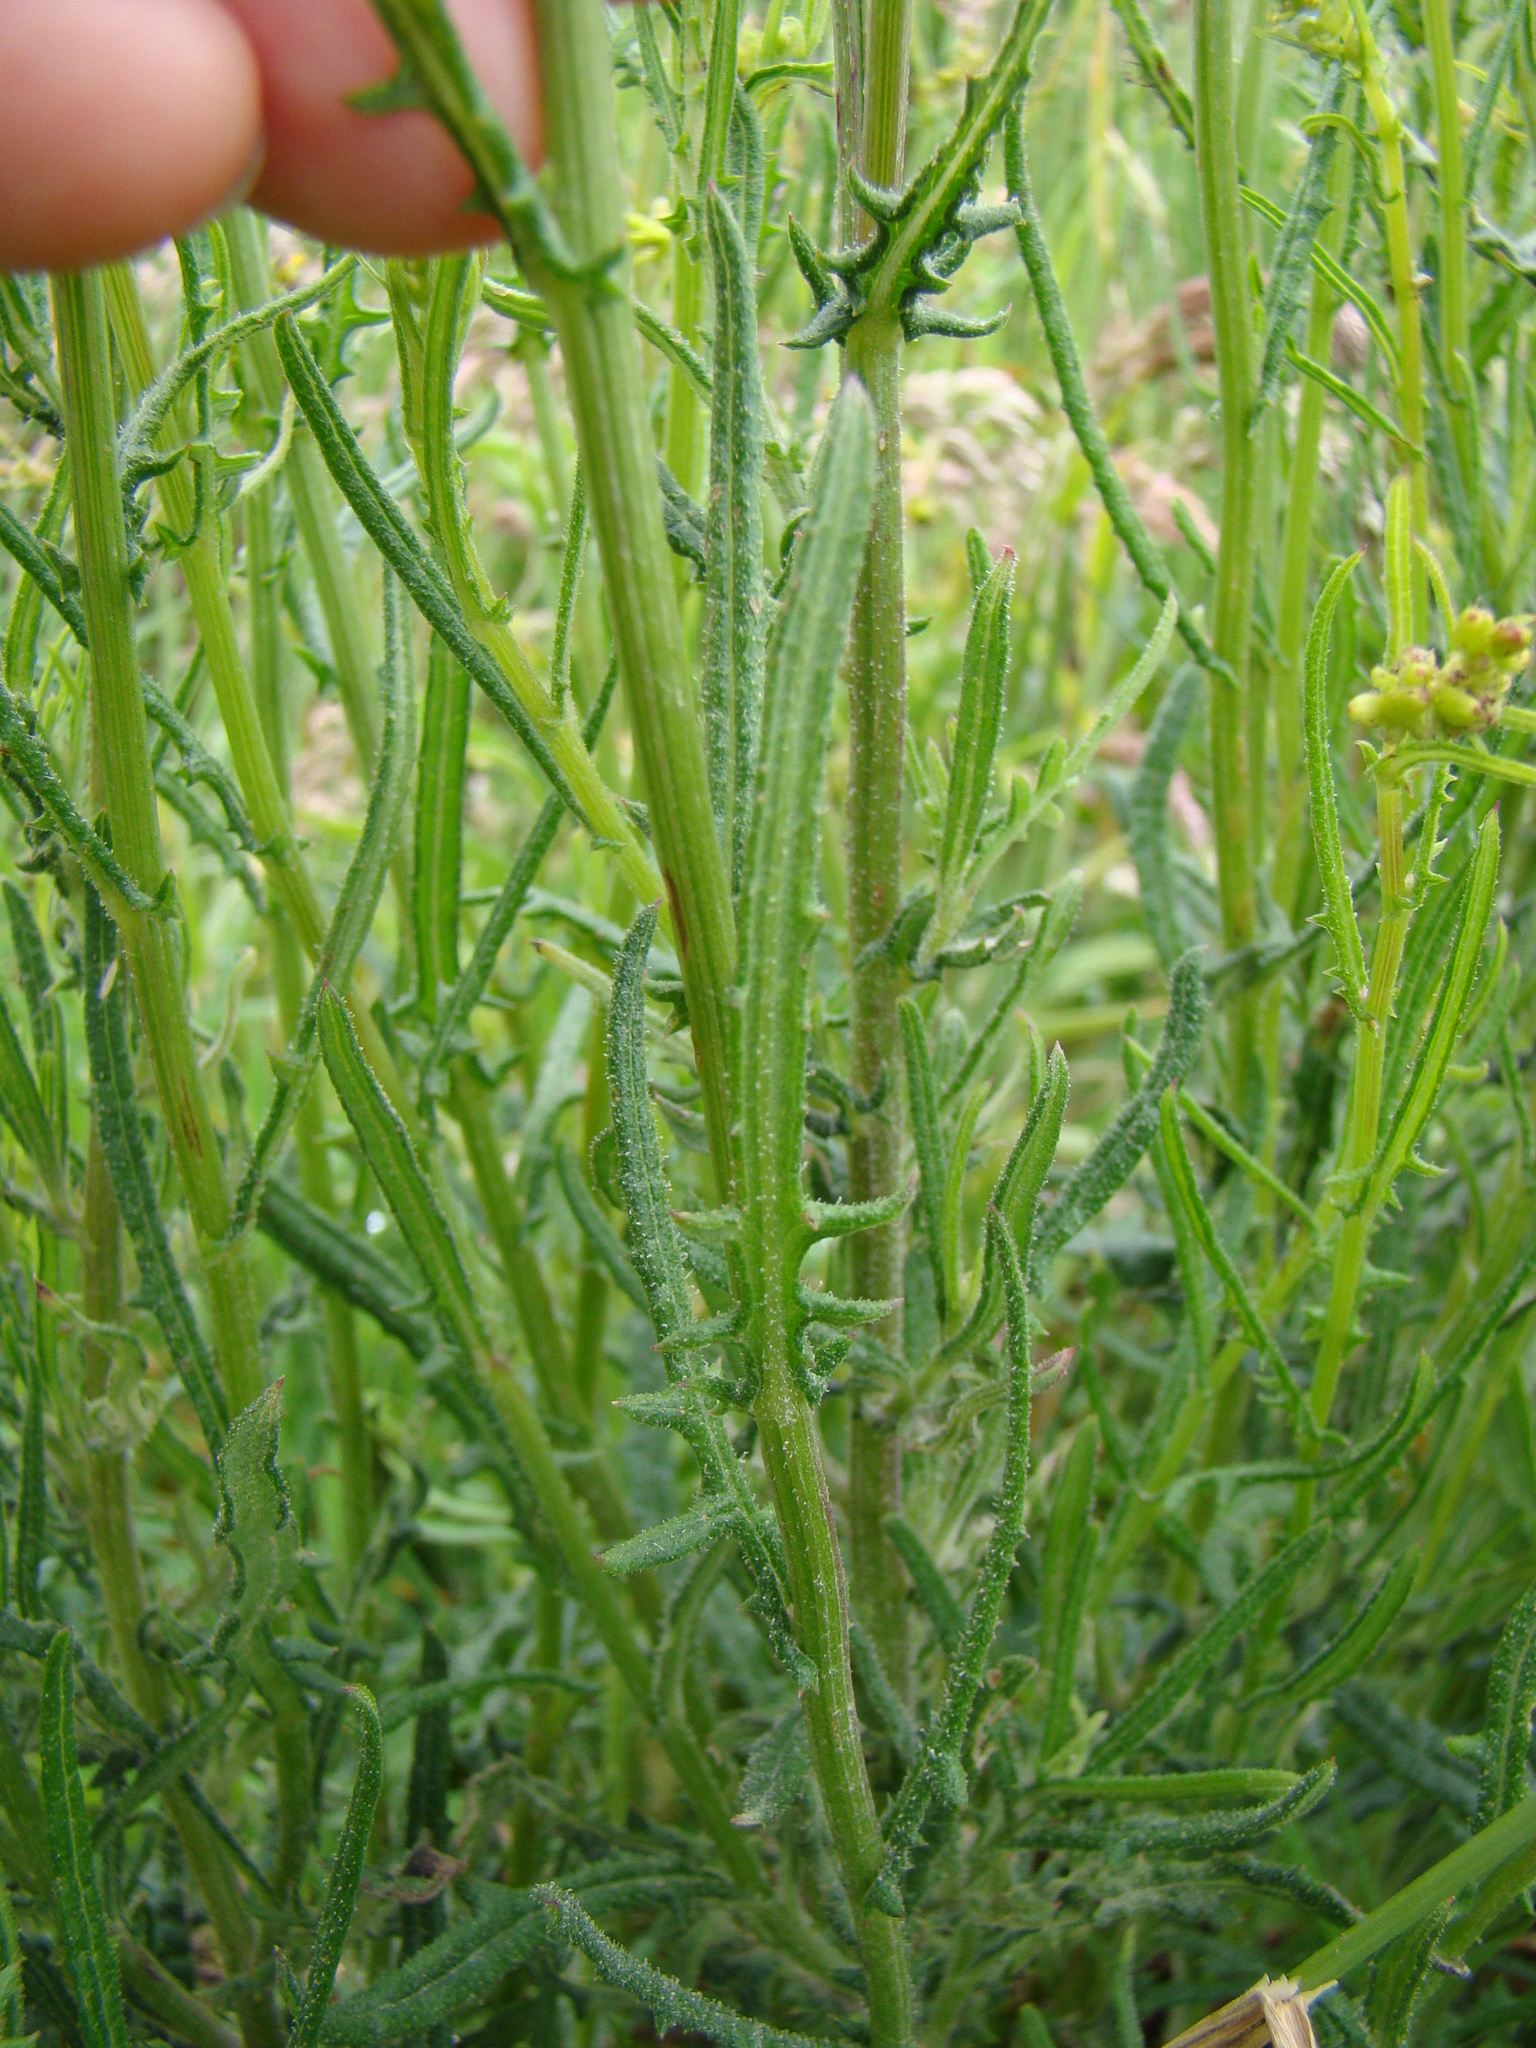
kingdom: Plantae
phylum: Tracheophyta
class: Magnoliopsida
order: Asterales
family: Asteraceae
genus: Senecio
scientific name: Senecio hispidulus
